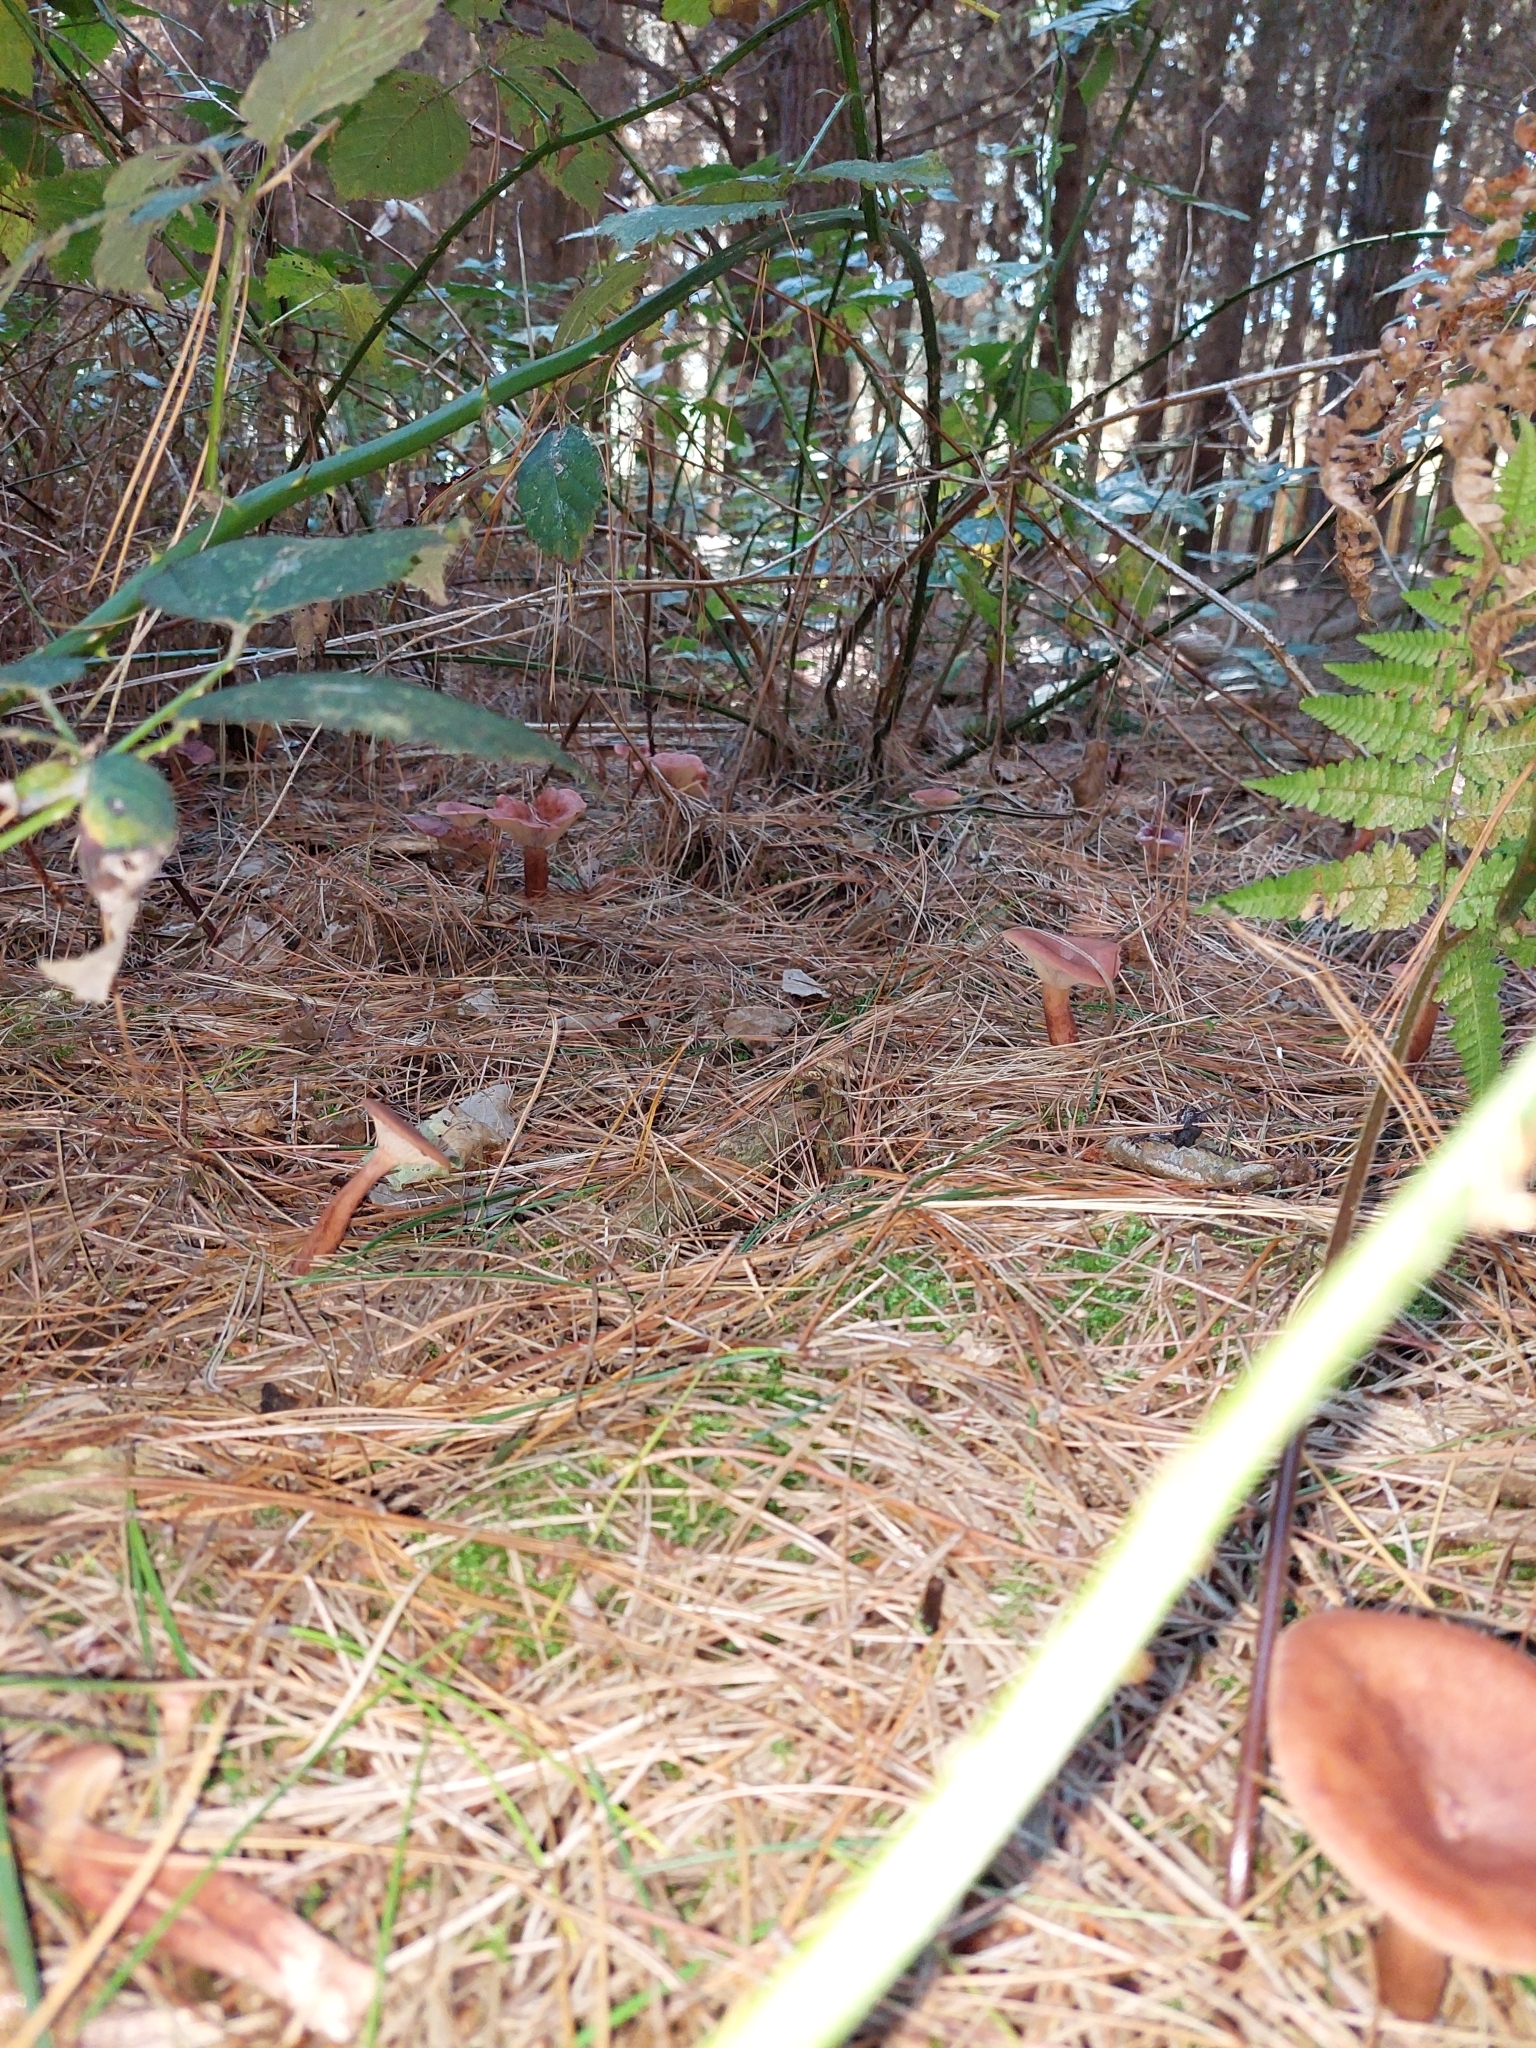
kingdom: Fungi
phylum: Basidiomycota
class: Agaricomycetes
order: Russulales
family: Russulaceae
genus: Lactarius
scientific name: Lactarius rufus
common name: Rufous milk-cap
